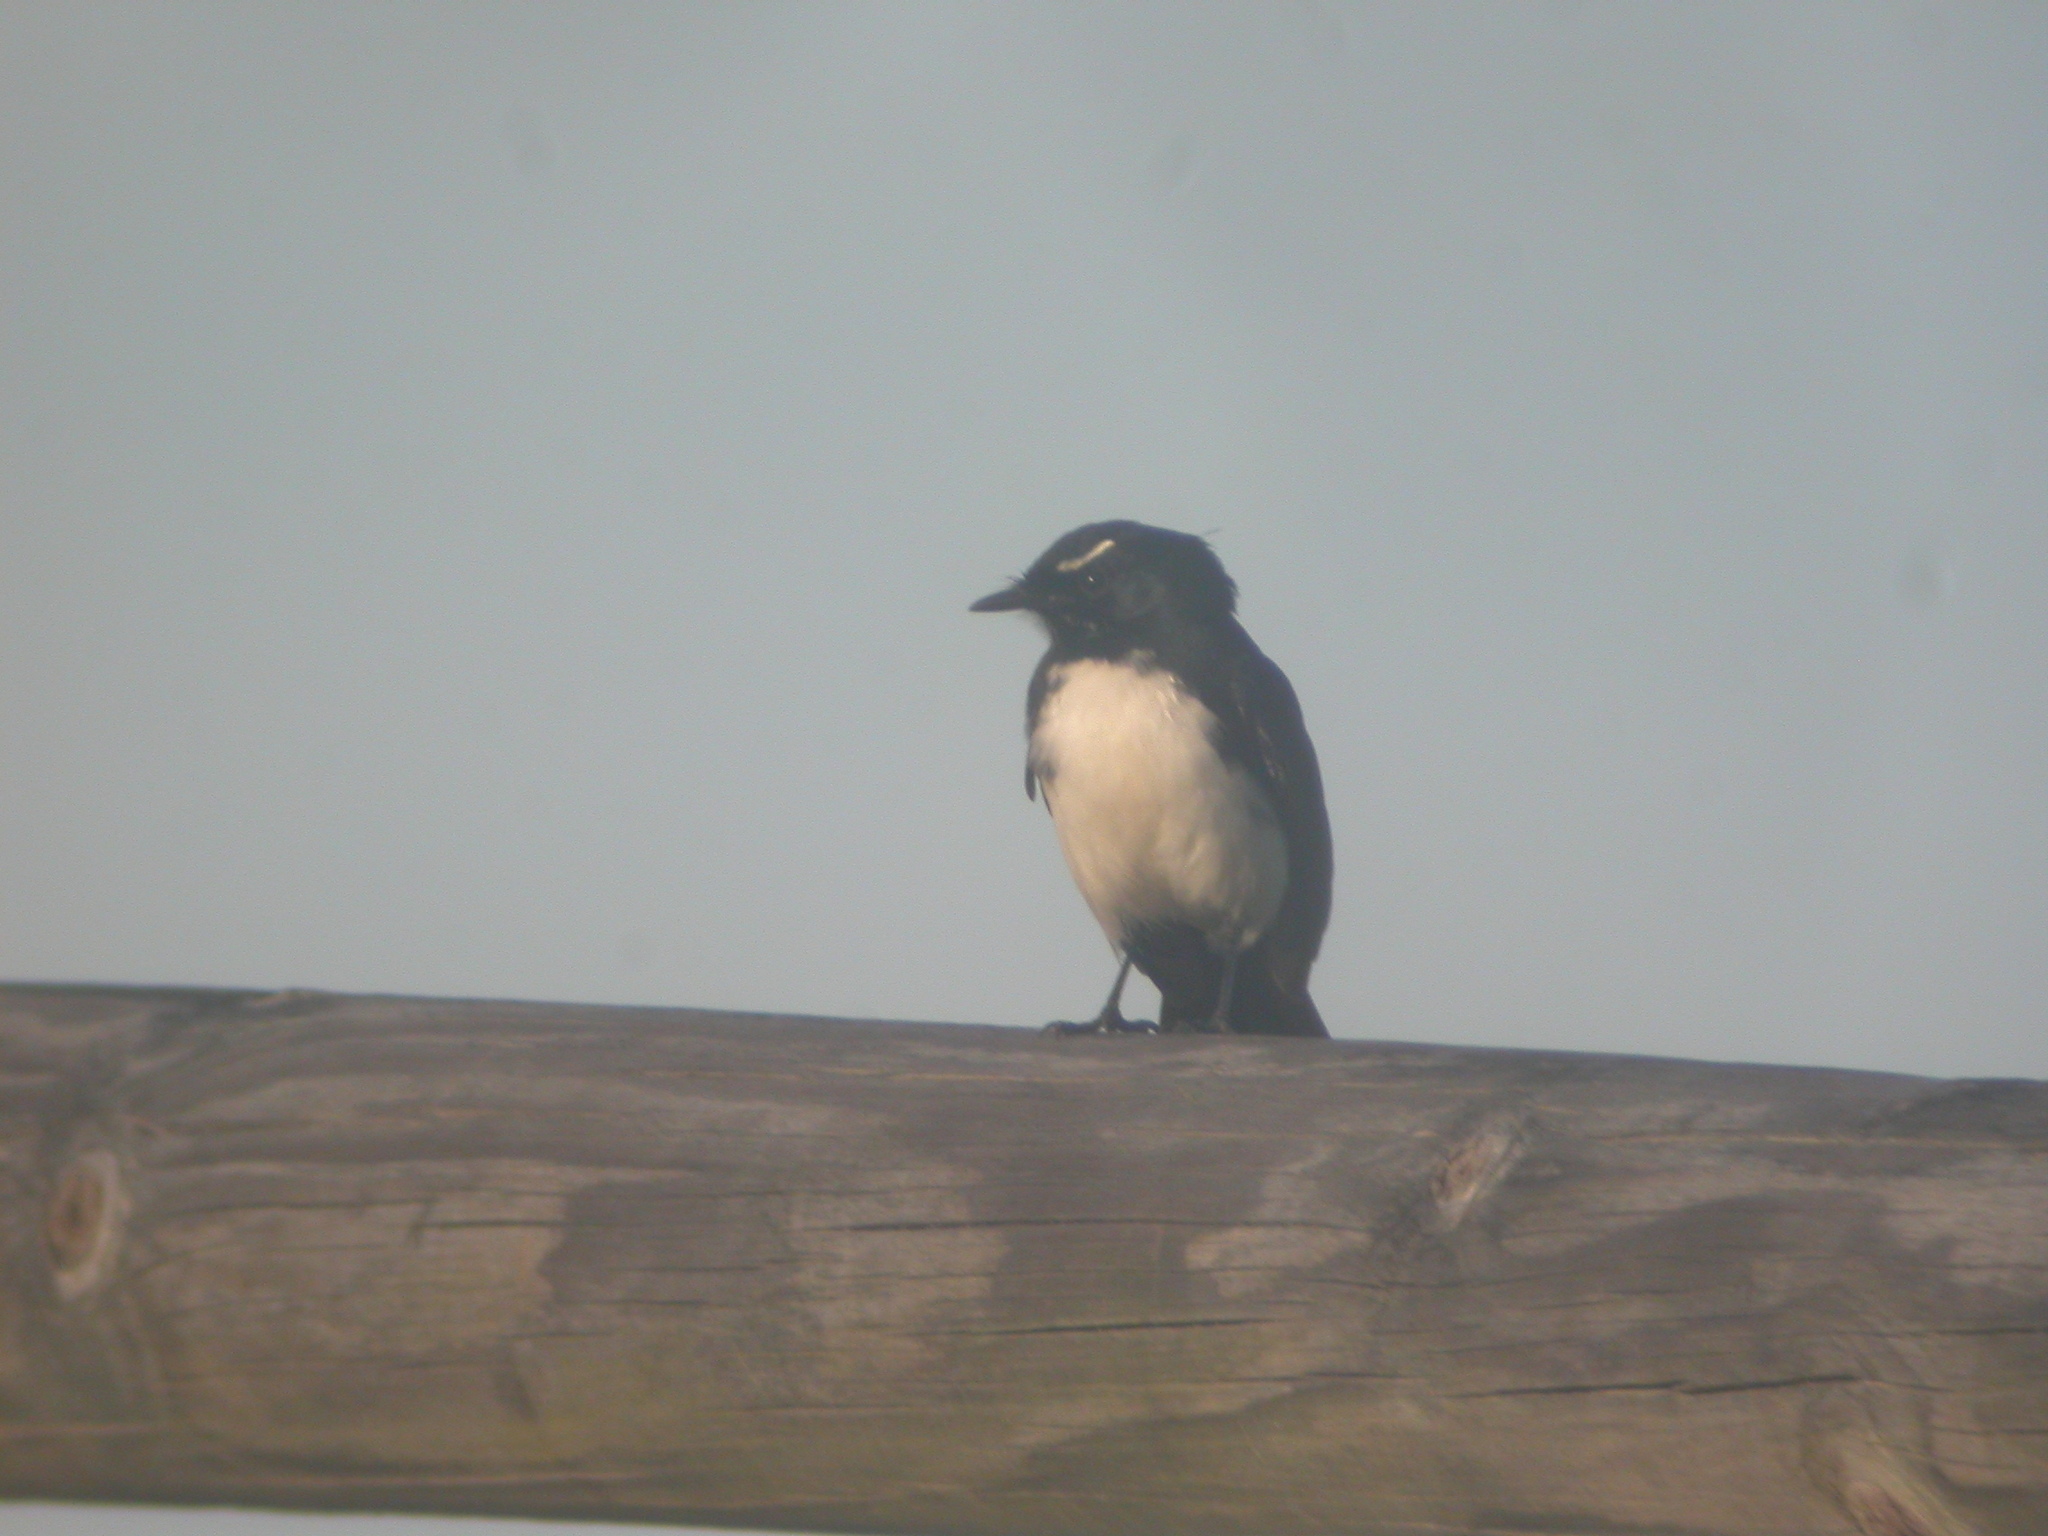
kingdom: Animalia
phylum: Chordata
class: Aves
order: Passeriformes
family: Rhipiduridae
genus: Rhipidura
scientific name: Rhipidura leucophrys
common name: Willie wagtail
